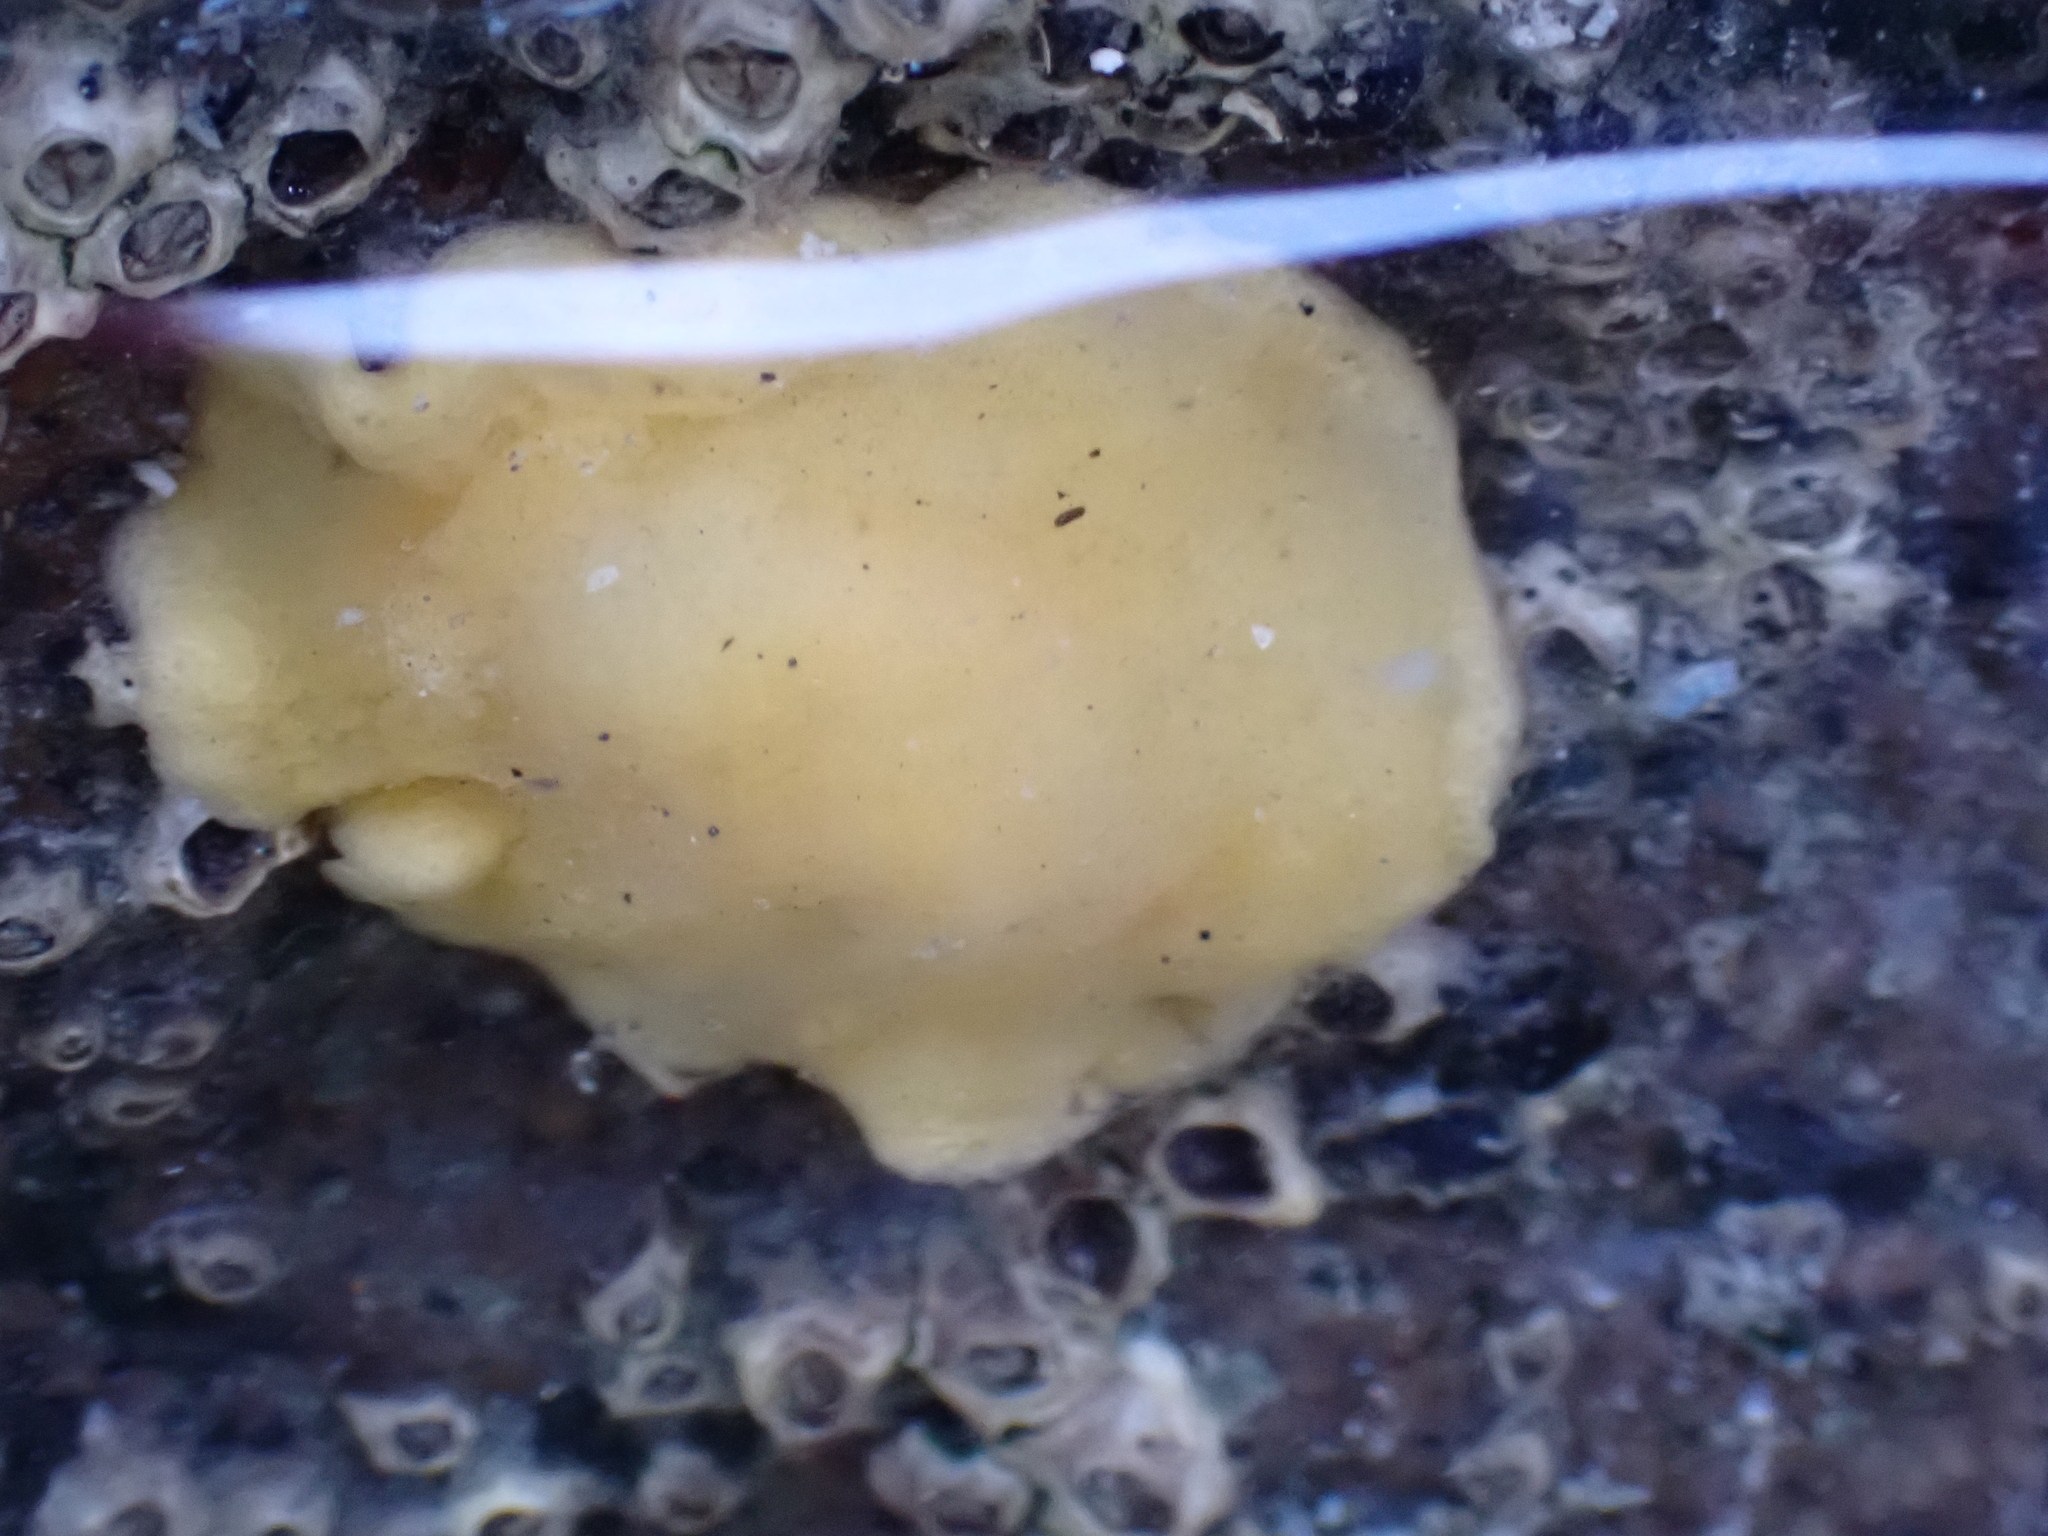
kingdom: Animalia
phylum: Mollusca
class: Gastropoda
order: Nudibranchia
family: Dorididae
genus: Doriopsis
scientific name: Doriopsis granulosa
